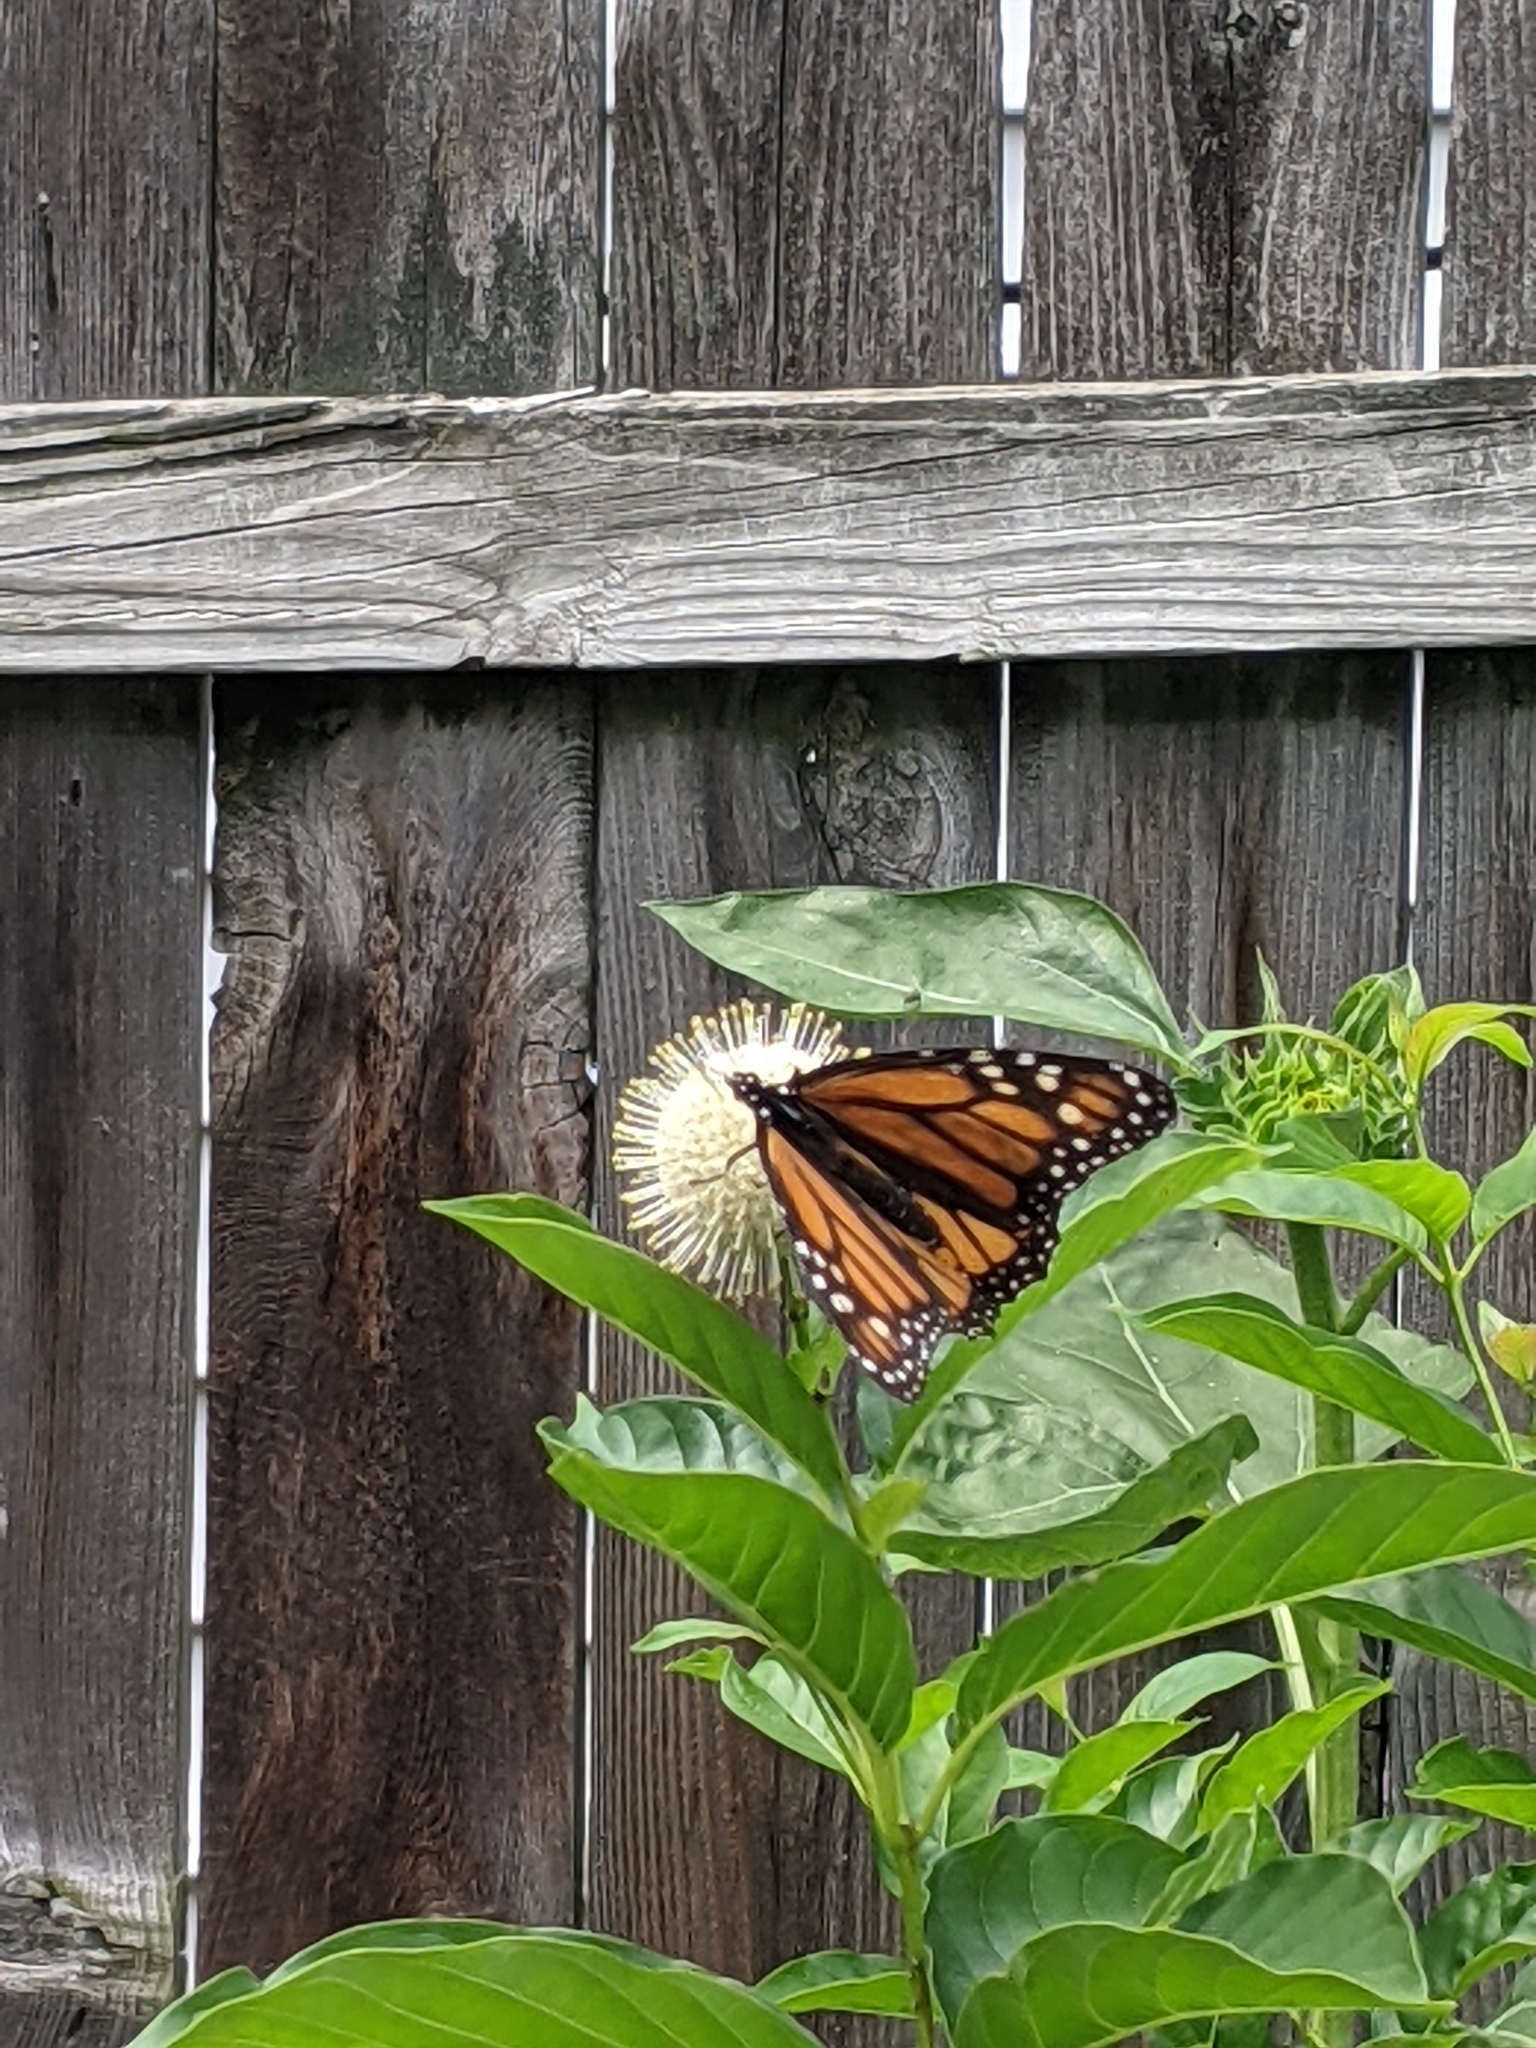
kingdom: Animalia
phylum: Arthropoda
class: Insecta
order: Lepidoptera
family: Nymphalidae
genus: Danaus
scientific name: Danaus plexippus
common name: Monarch
